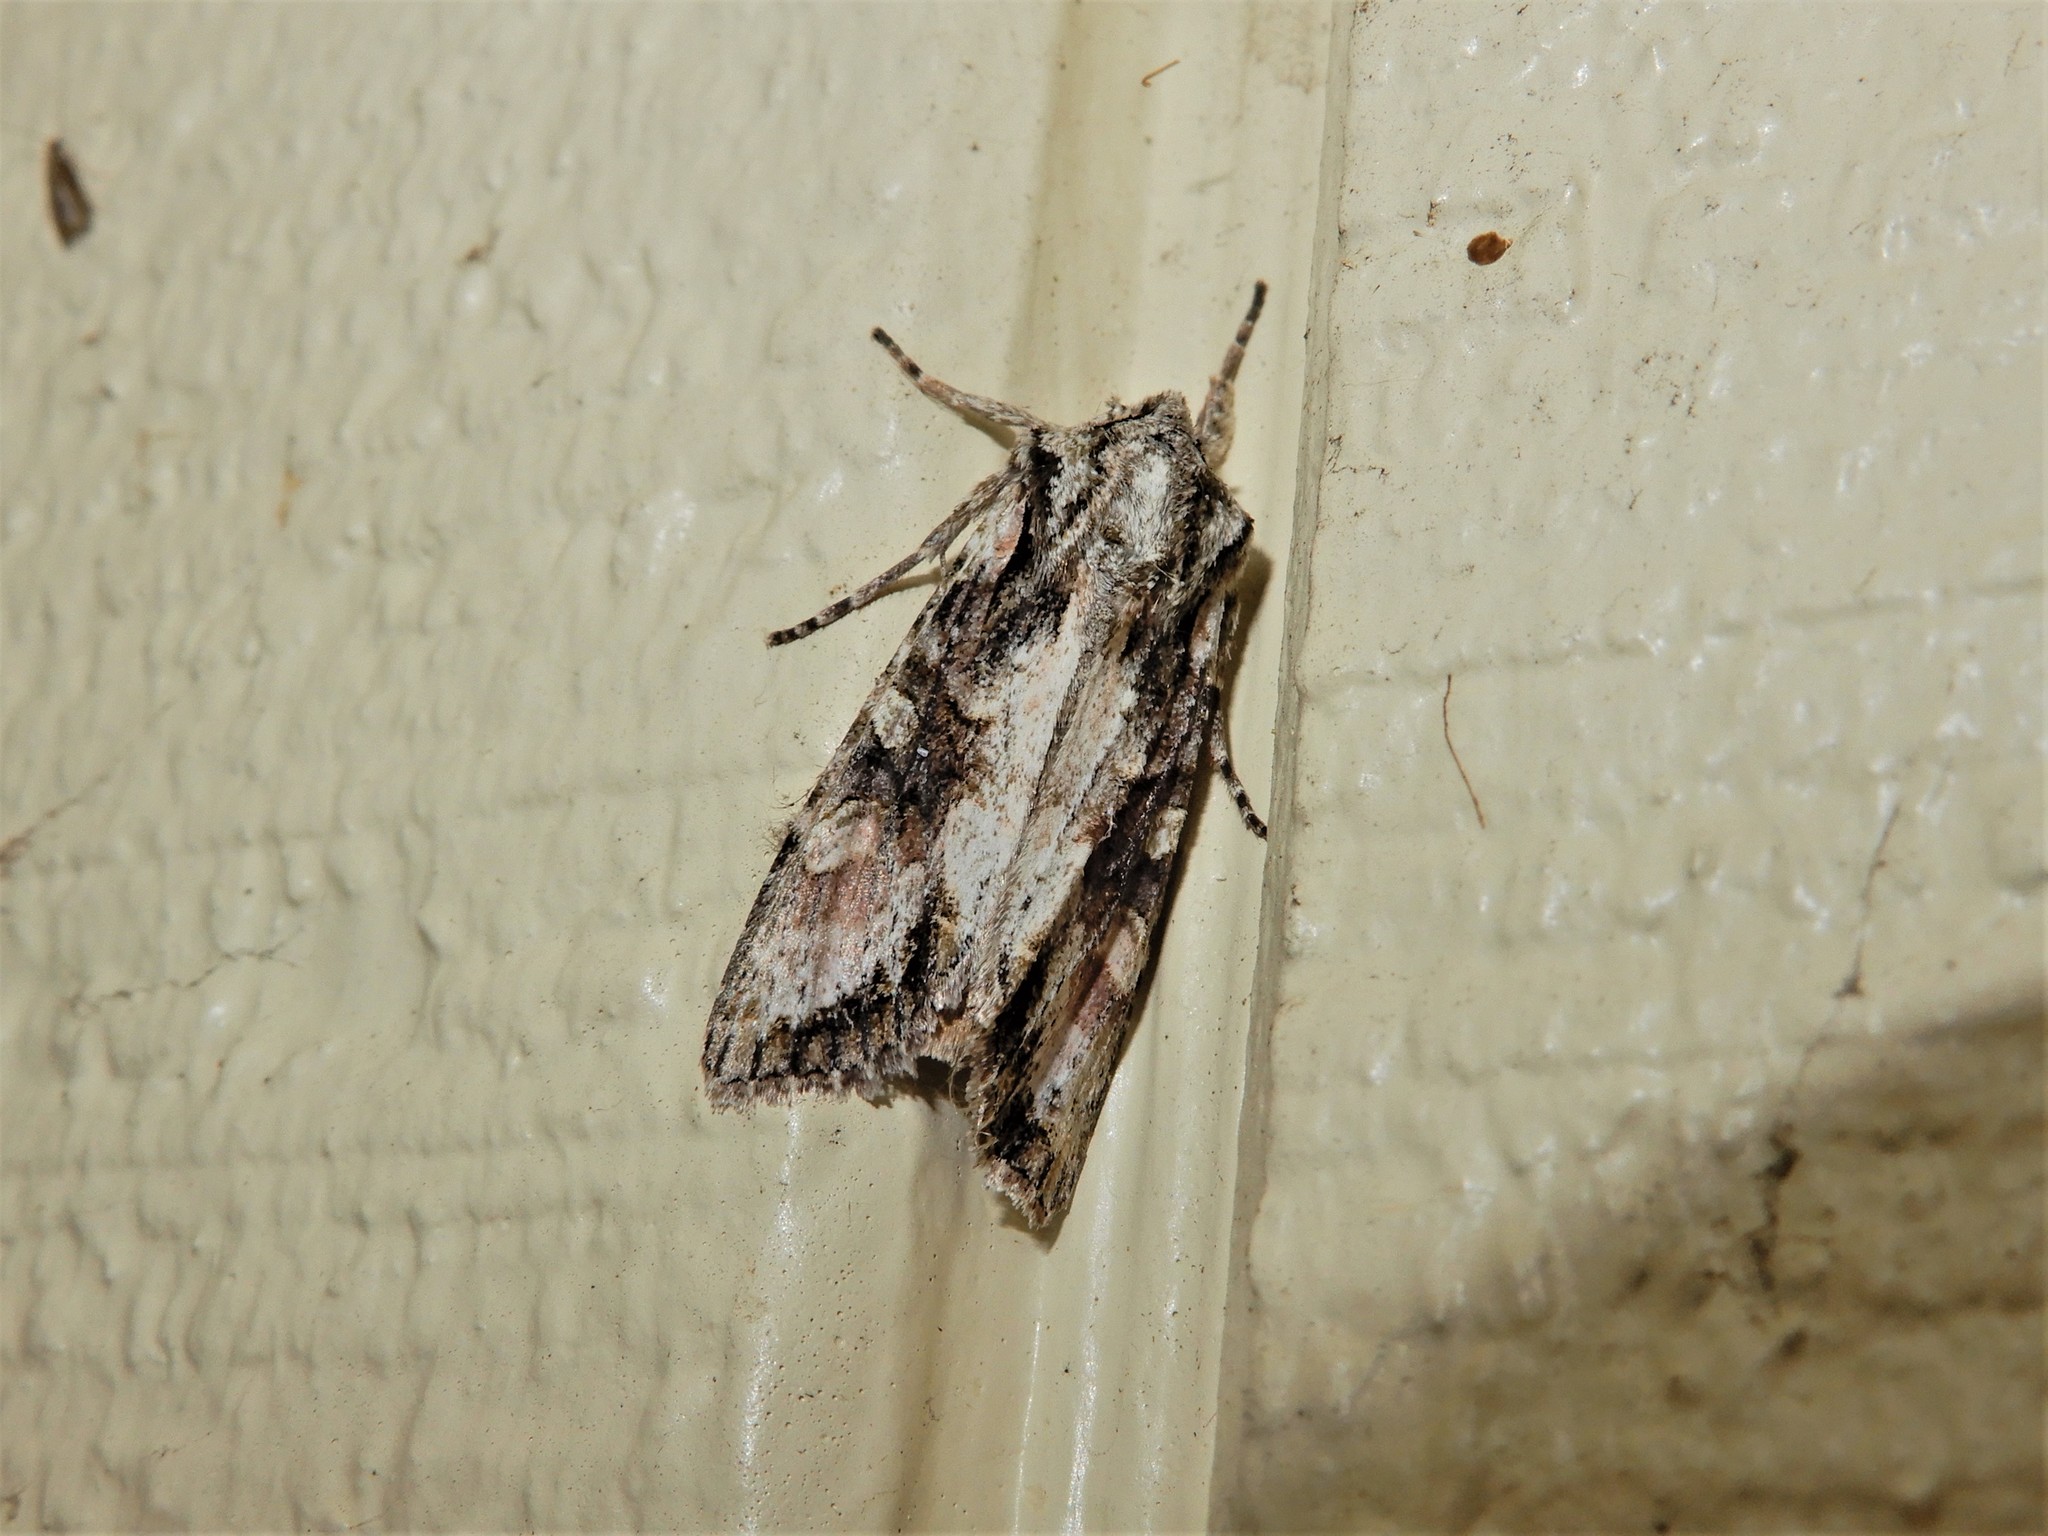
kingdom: Animalia
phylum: Arthropoda
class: Insecta
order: Lepidoptera
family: Noctuidae
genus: Ichneutica
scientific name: Ichneutica mutans
